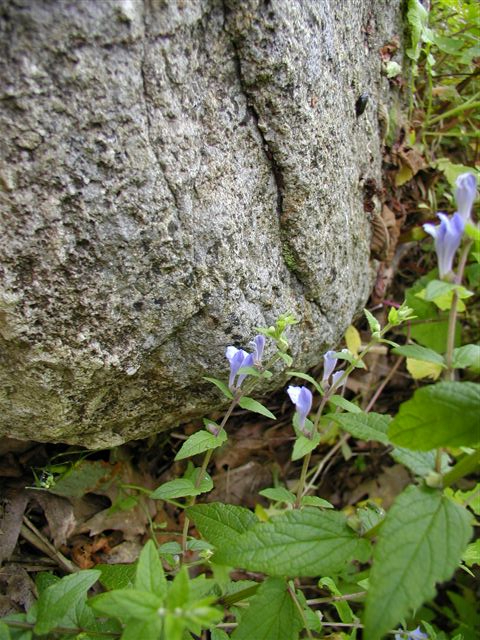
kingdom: Plantae
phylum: Tracheophyta
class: Magnoliopsida
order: Lamiales
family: Lamiaceae
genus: Scutellaria
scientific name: Scutellaria galericulata
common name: Skullcap
